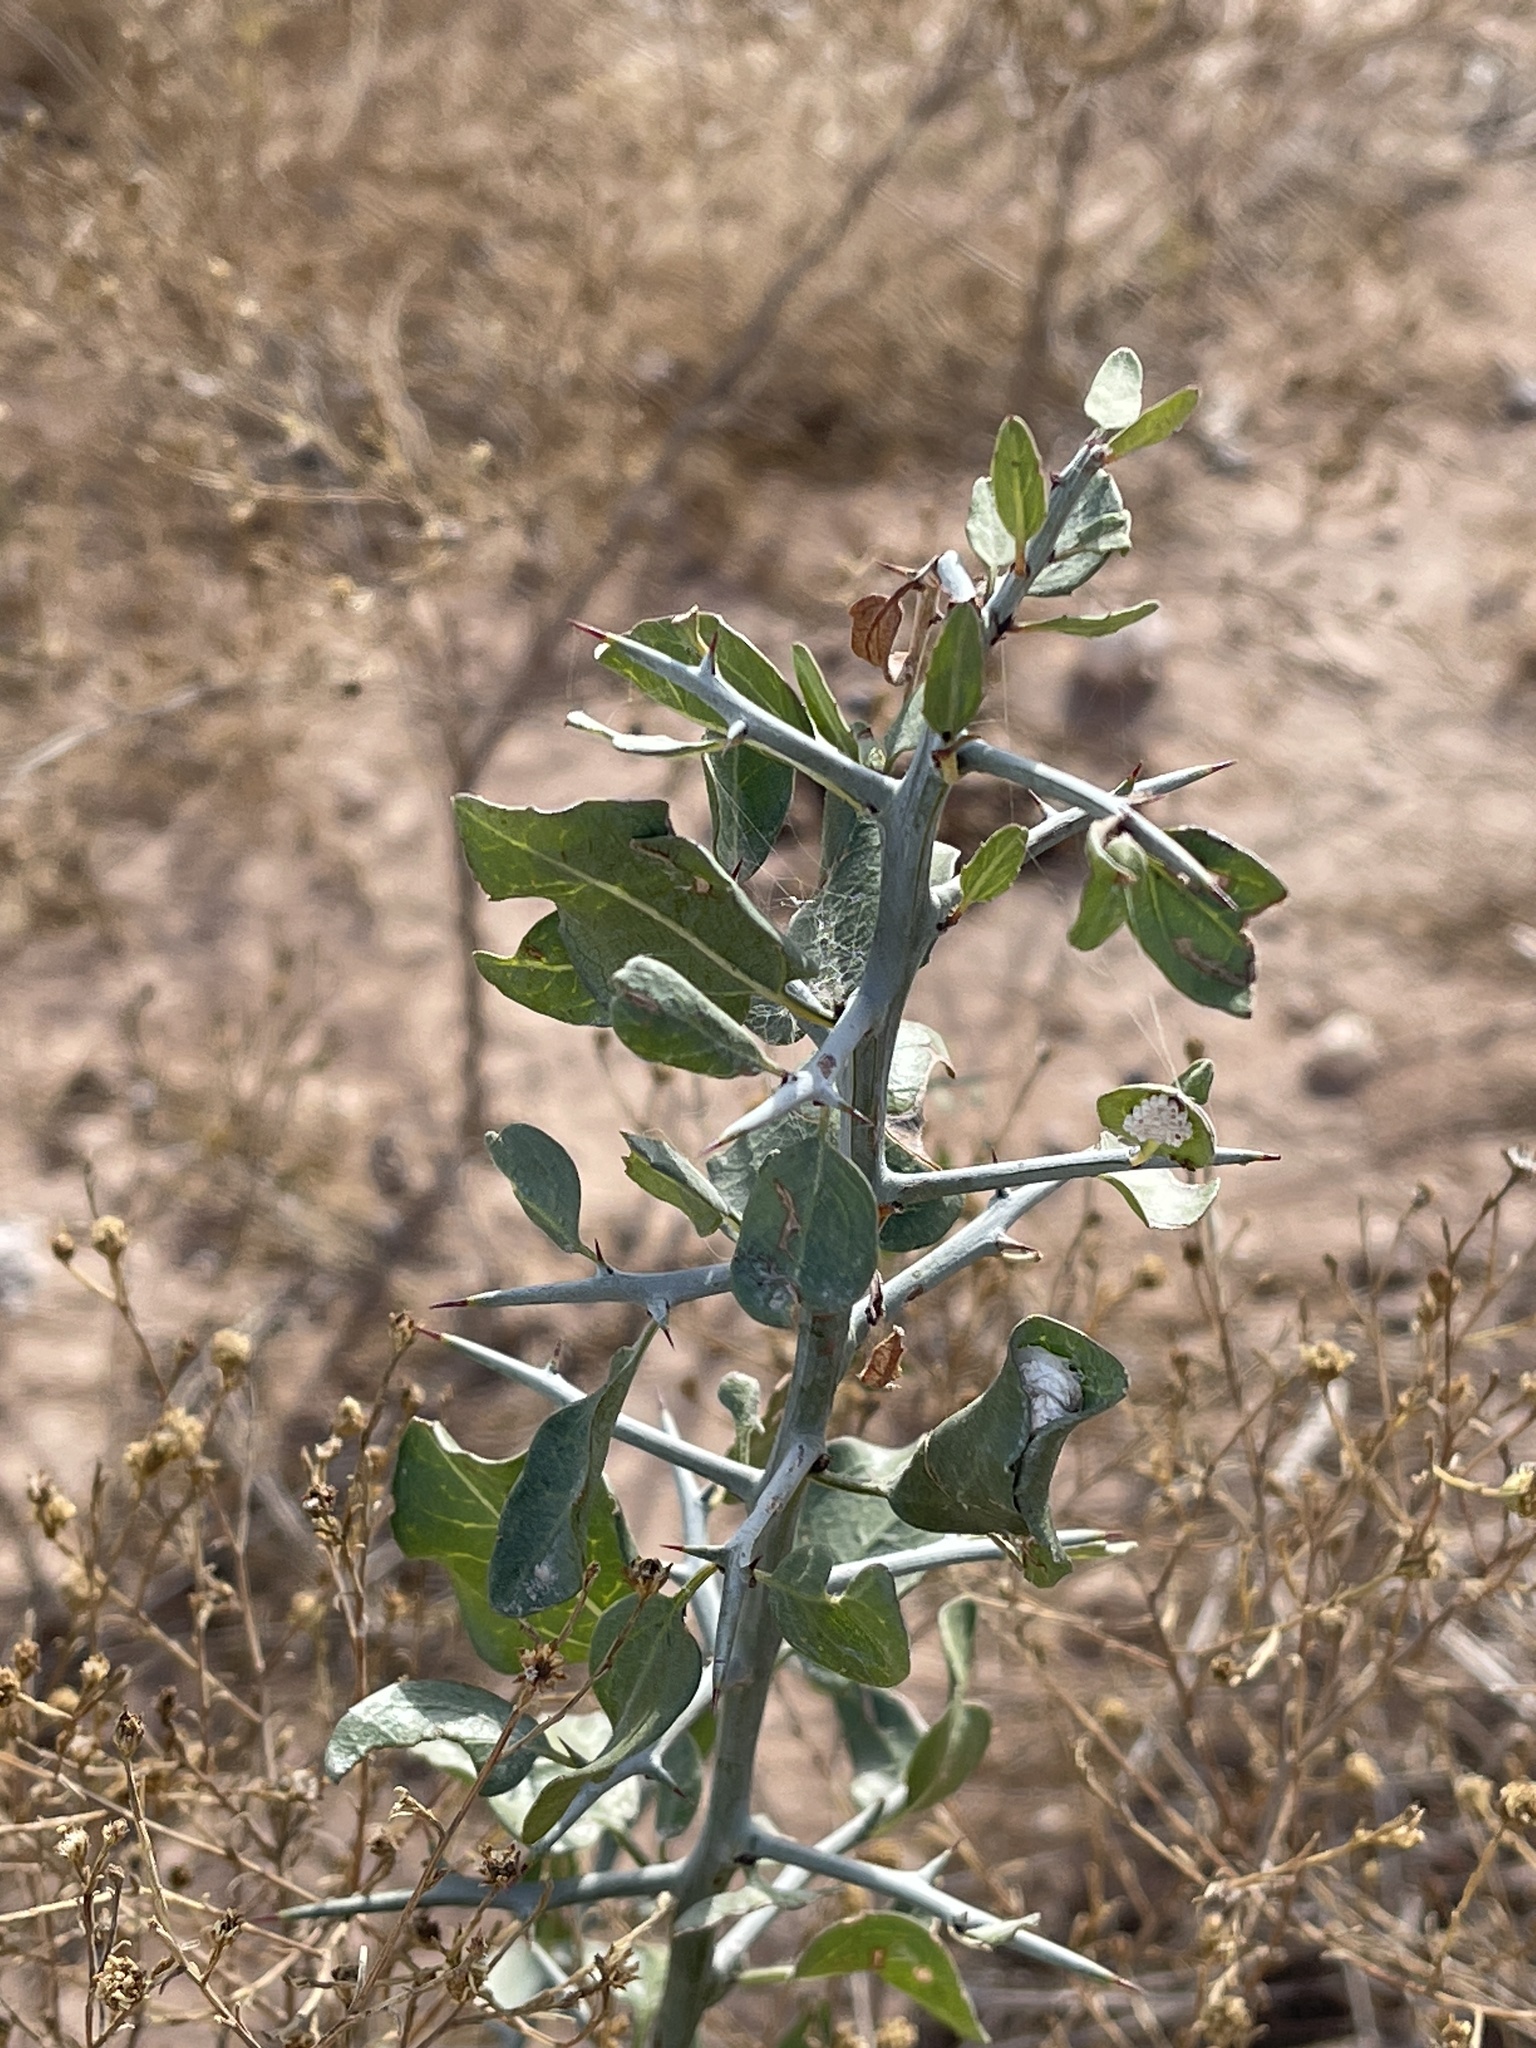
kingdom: Plantae
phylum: Tracheophyta
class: Magnoliopsida
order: Rosales
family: Rhamnaceae
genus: Sarcomphalus
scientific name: Sarcomphalus obtusifolius
